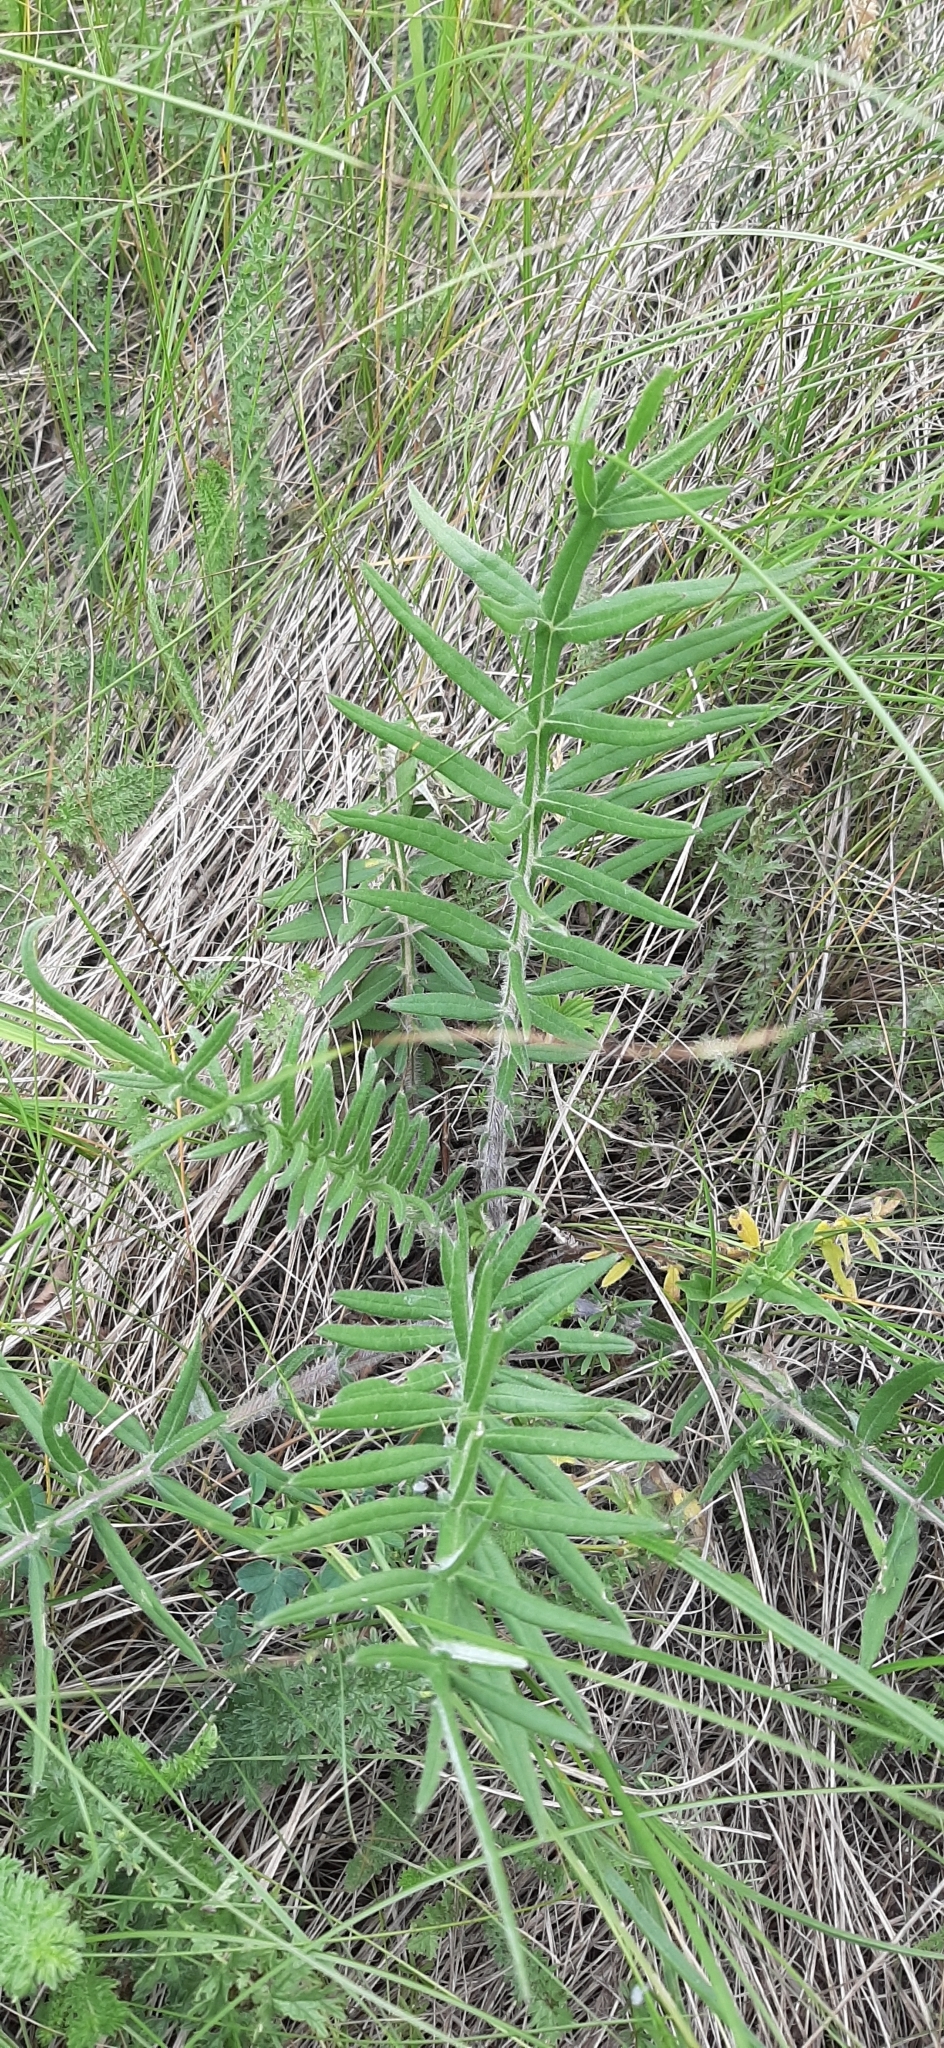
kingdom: Plantae
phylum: Tracheophyta
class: Magnoliopsida
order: Asterales
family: Asteraceae
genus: Lophiolepis
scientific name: Lophiolepis decussata
